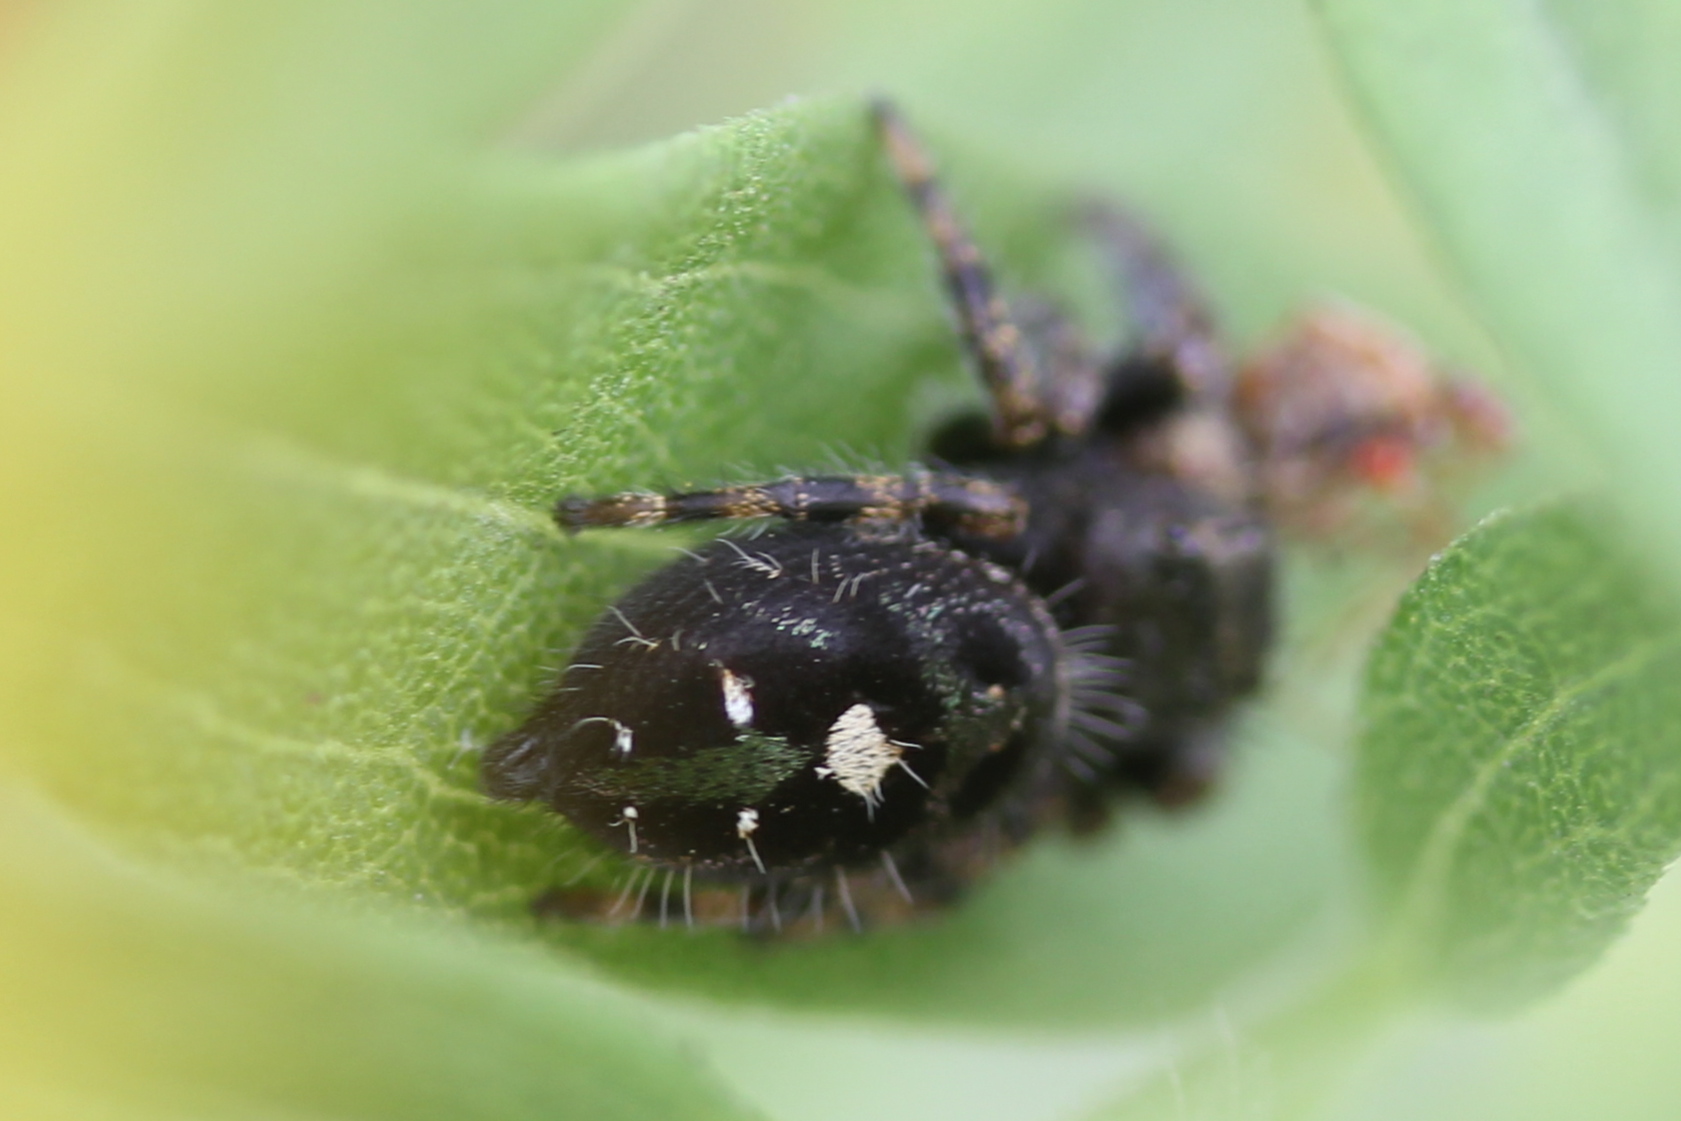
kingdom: Animalia
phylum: Arthropoda
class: Arachnida
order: Araneae
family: Salticidae
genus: Phidippus
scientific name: Phidippus audax
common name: Bold jumper
